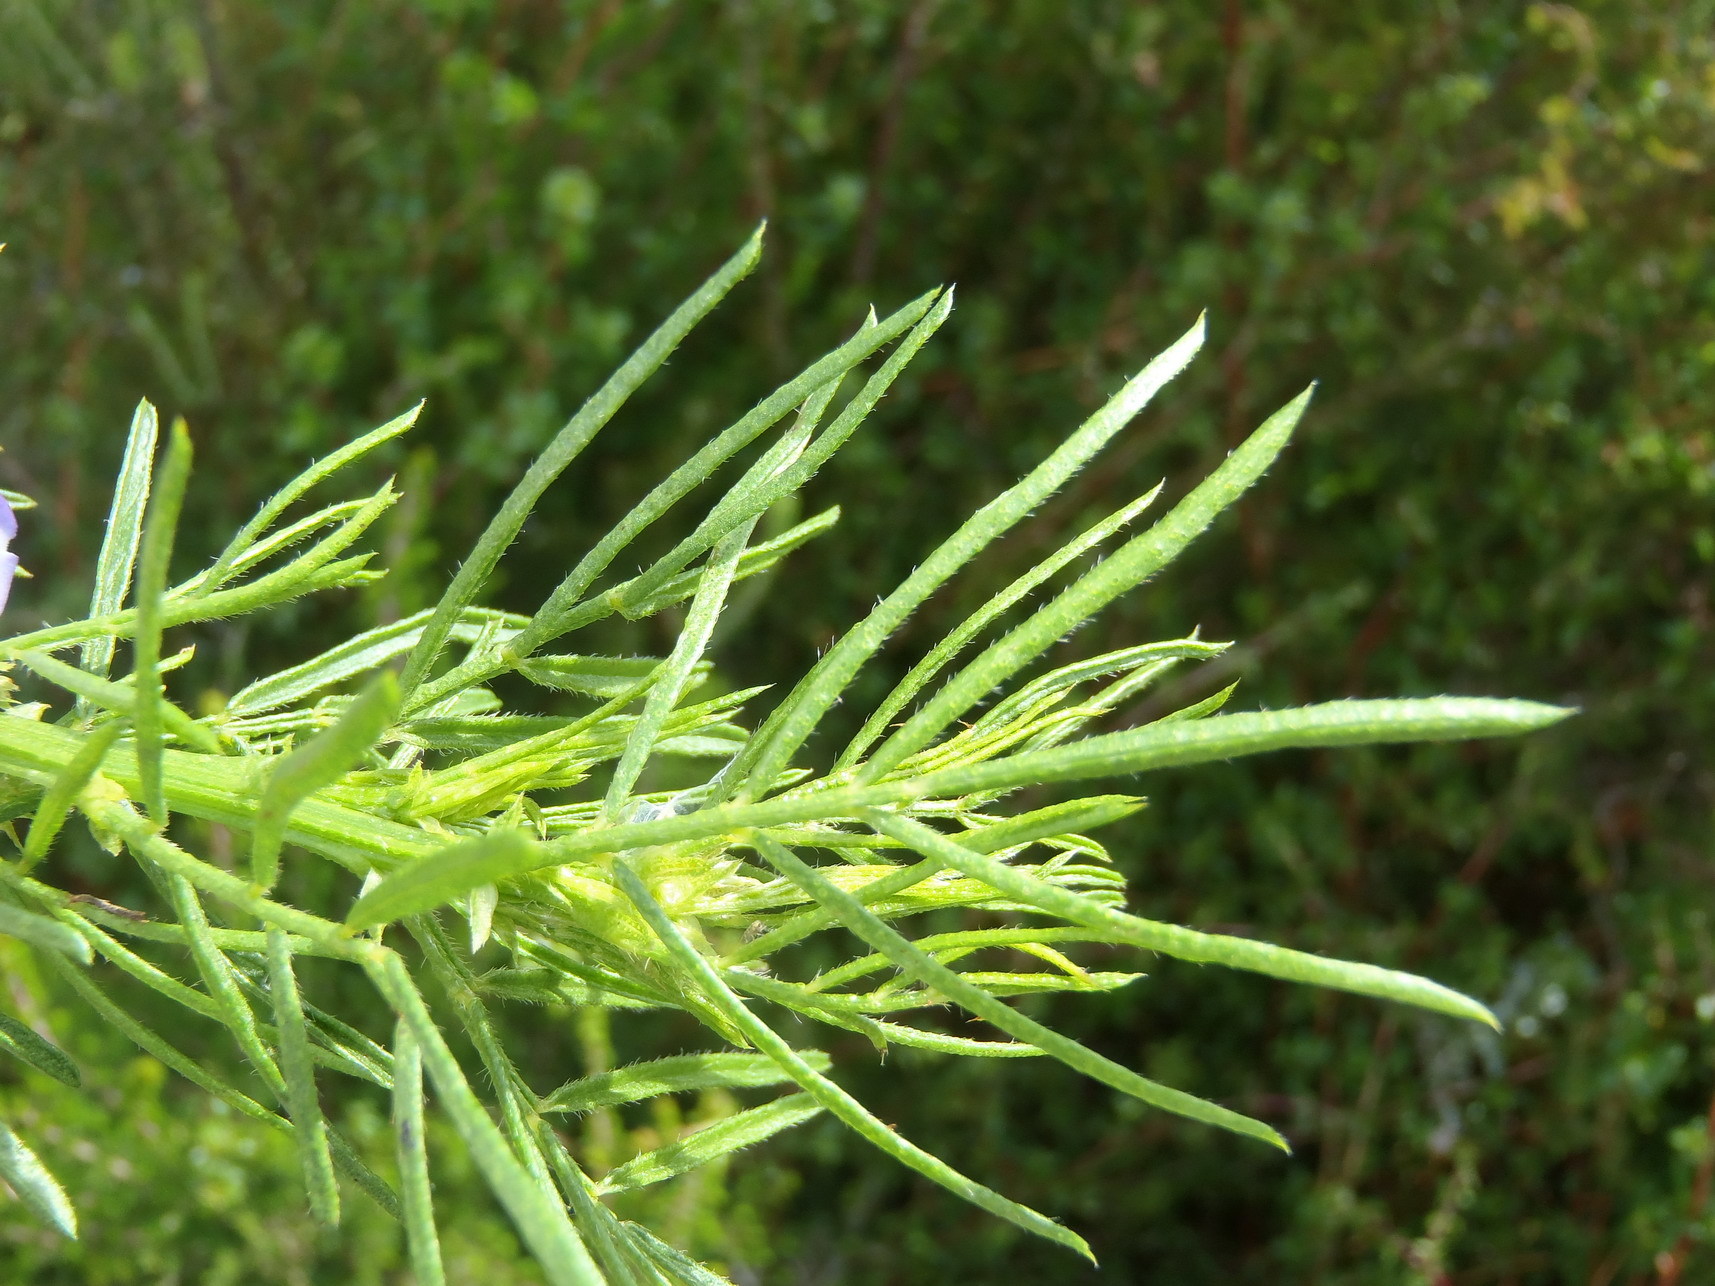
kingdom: Plantae
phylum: Tracheophyta
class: Magnoliopsida
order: Fabales
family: Fabaceae
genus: Psoralea
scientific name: Psoralea affinis
